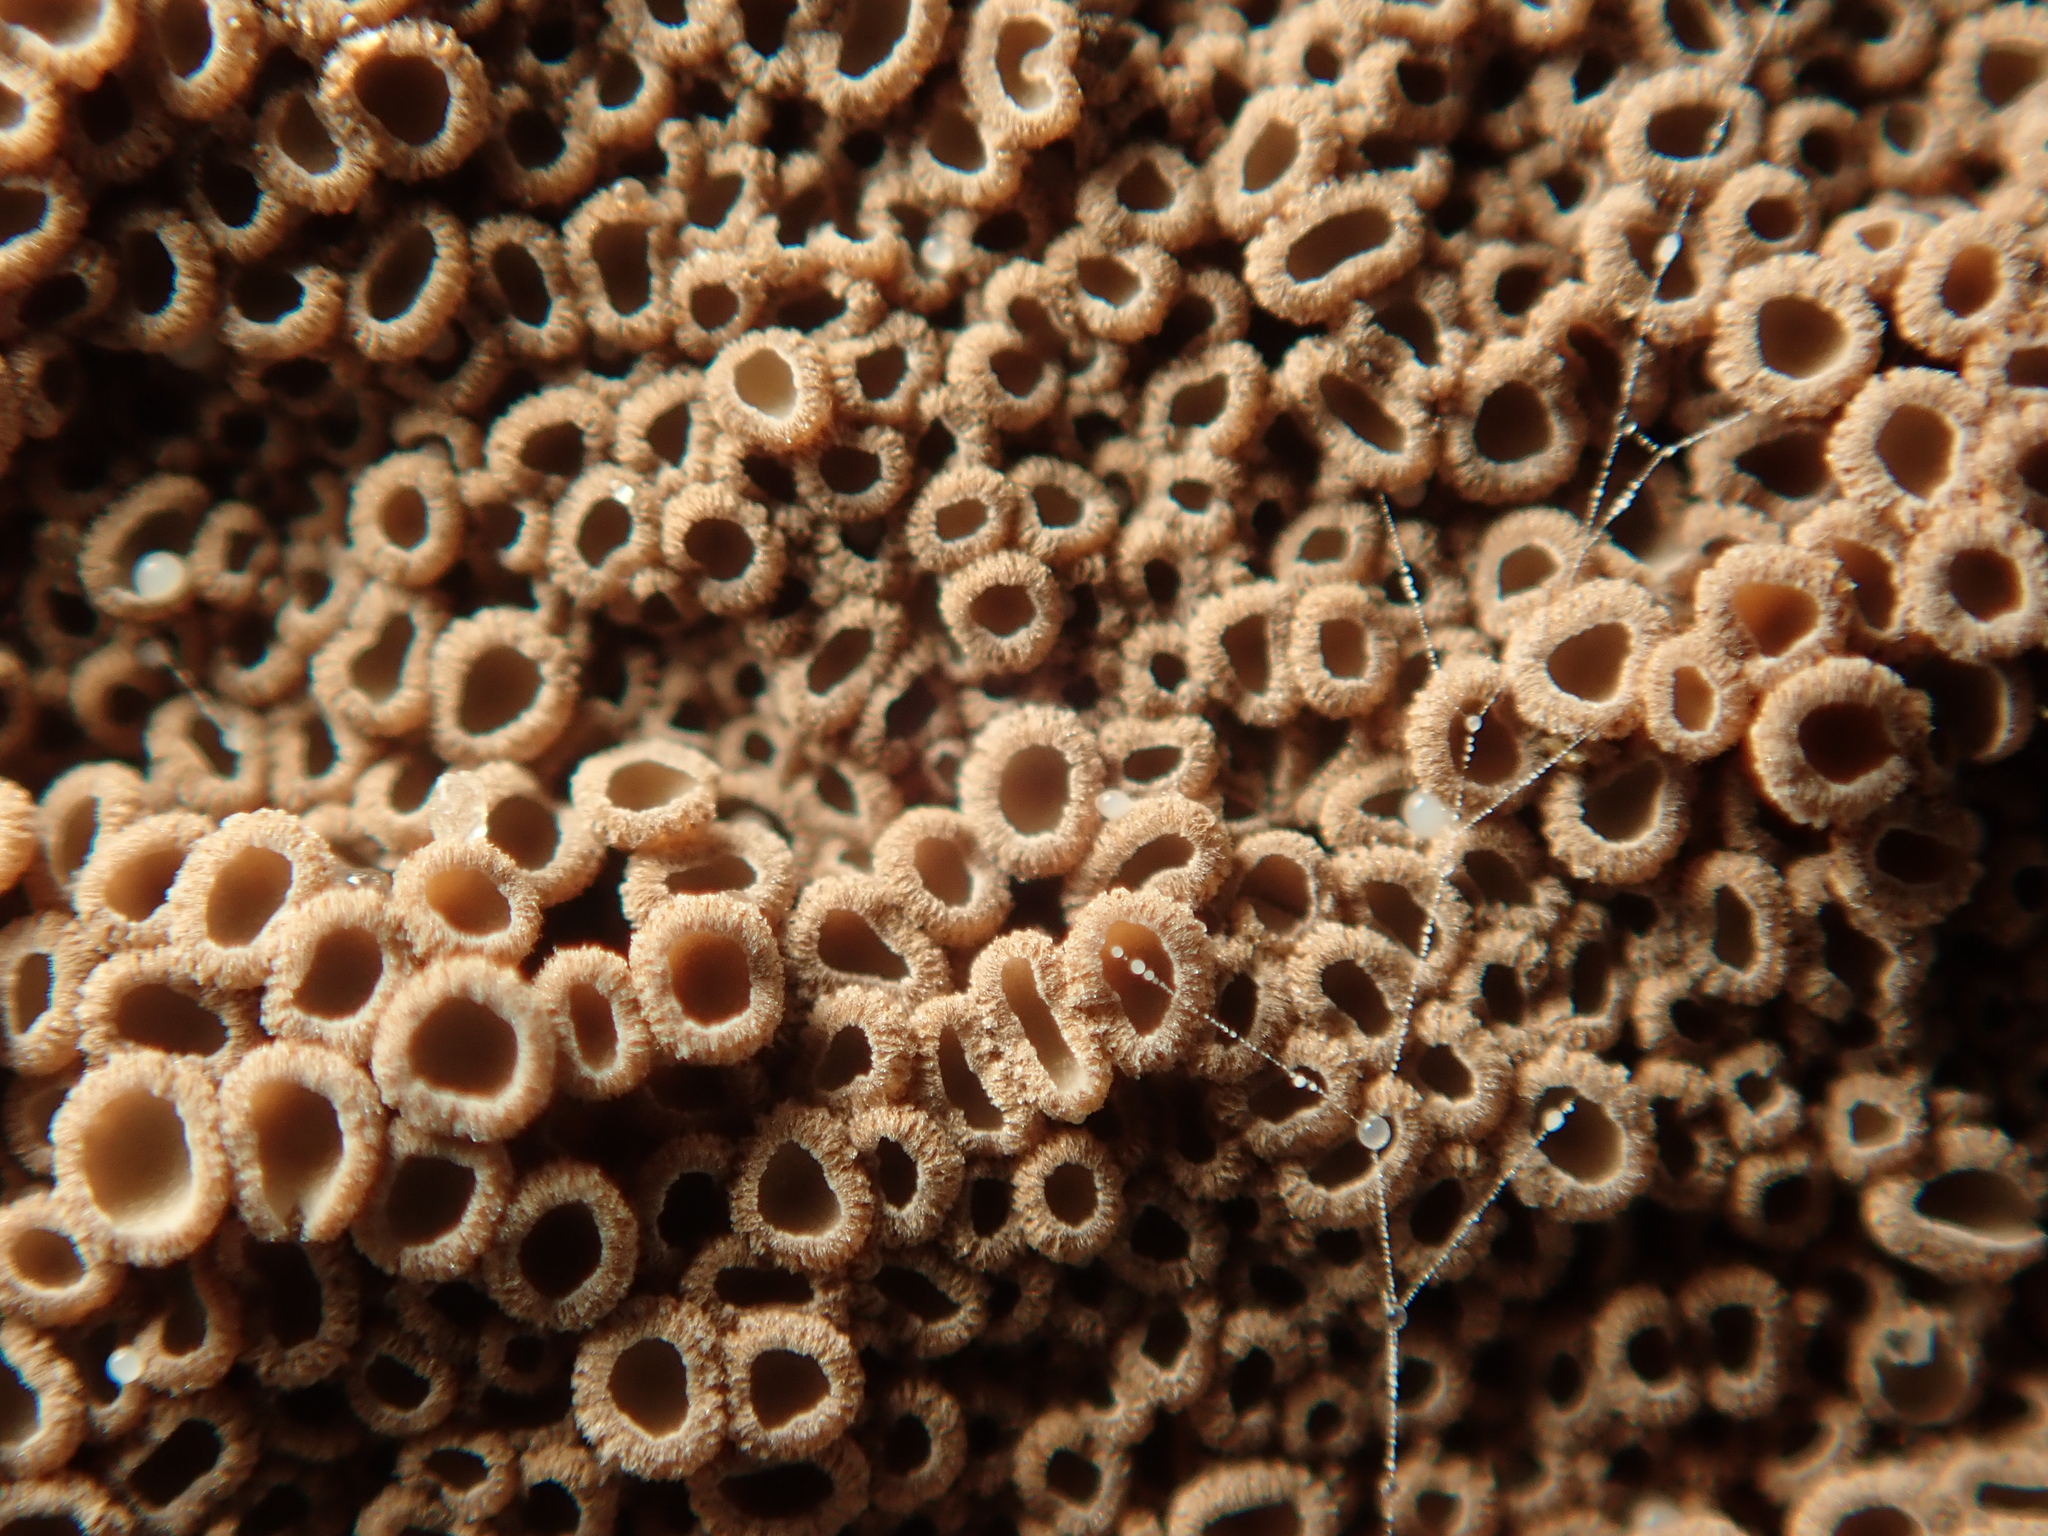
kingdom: Fungi
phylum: Basidiomycota
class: Agaricomycetes
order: Agaricales
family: Niaceae
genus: Merismodes
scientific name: Merismodes anomala
